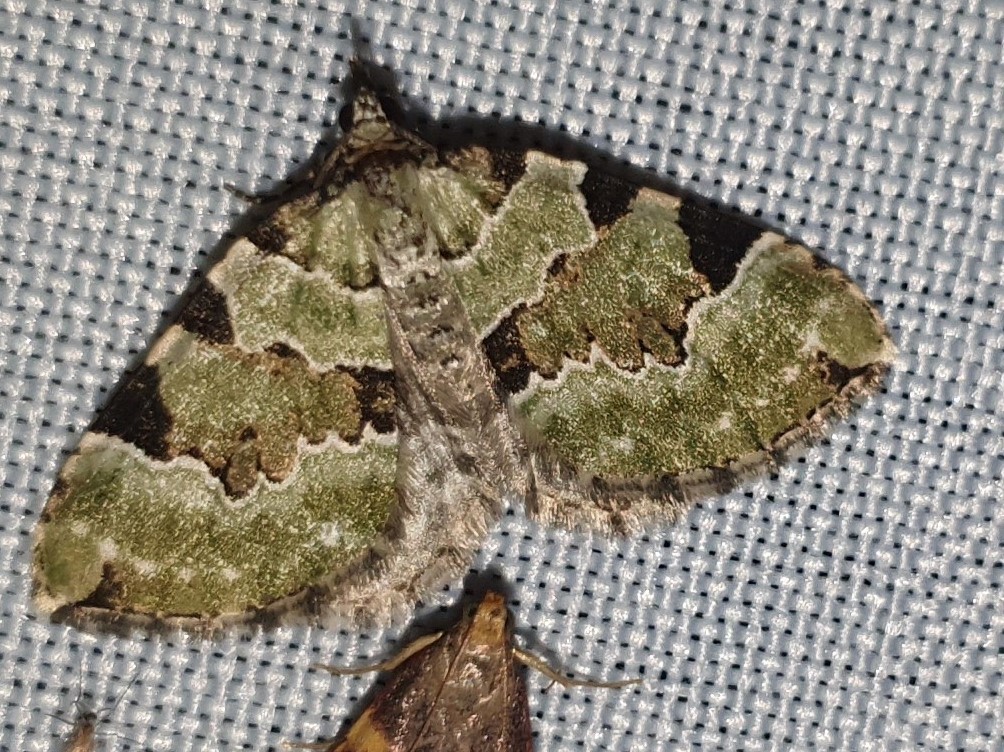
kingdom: Animalia
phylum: Arthropoda
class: Insecta
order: Lepidoptera
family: Geometridae
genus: Colostygia
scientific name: Colostygia pectinataria
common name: Green carpet
